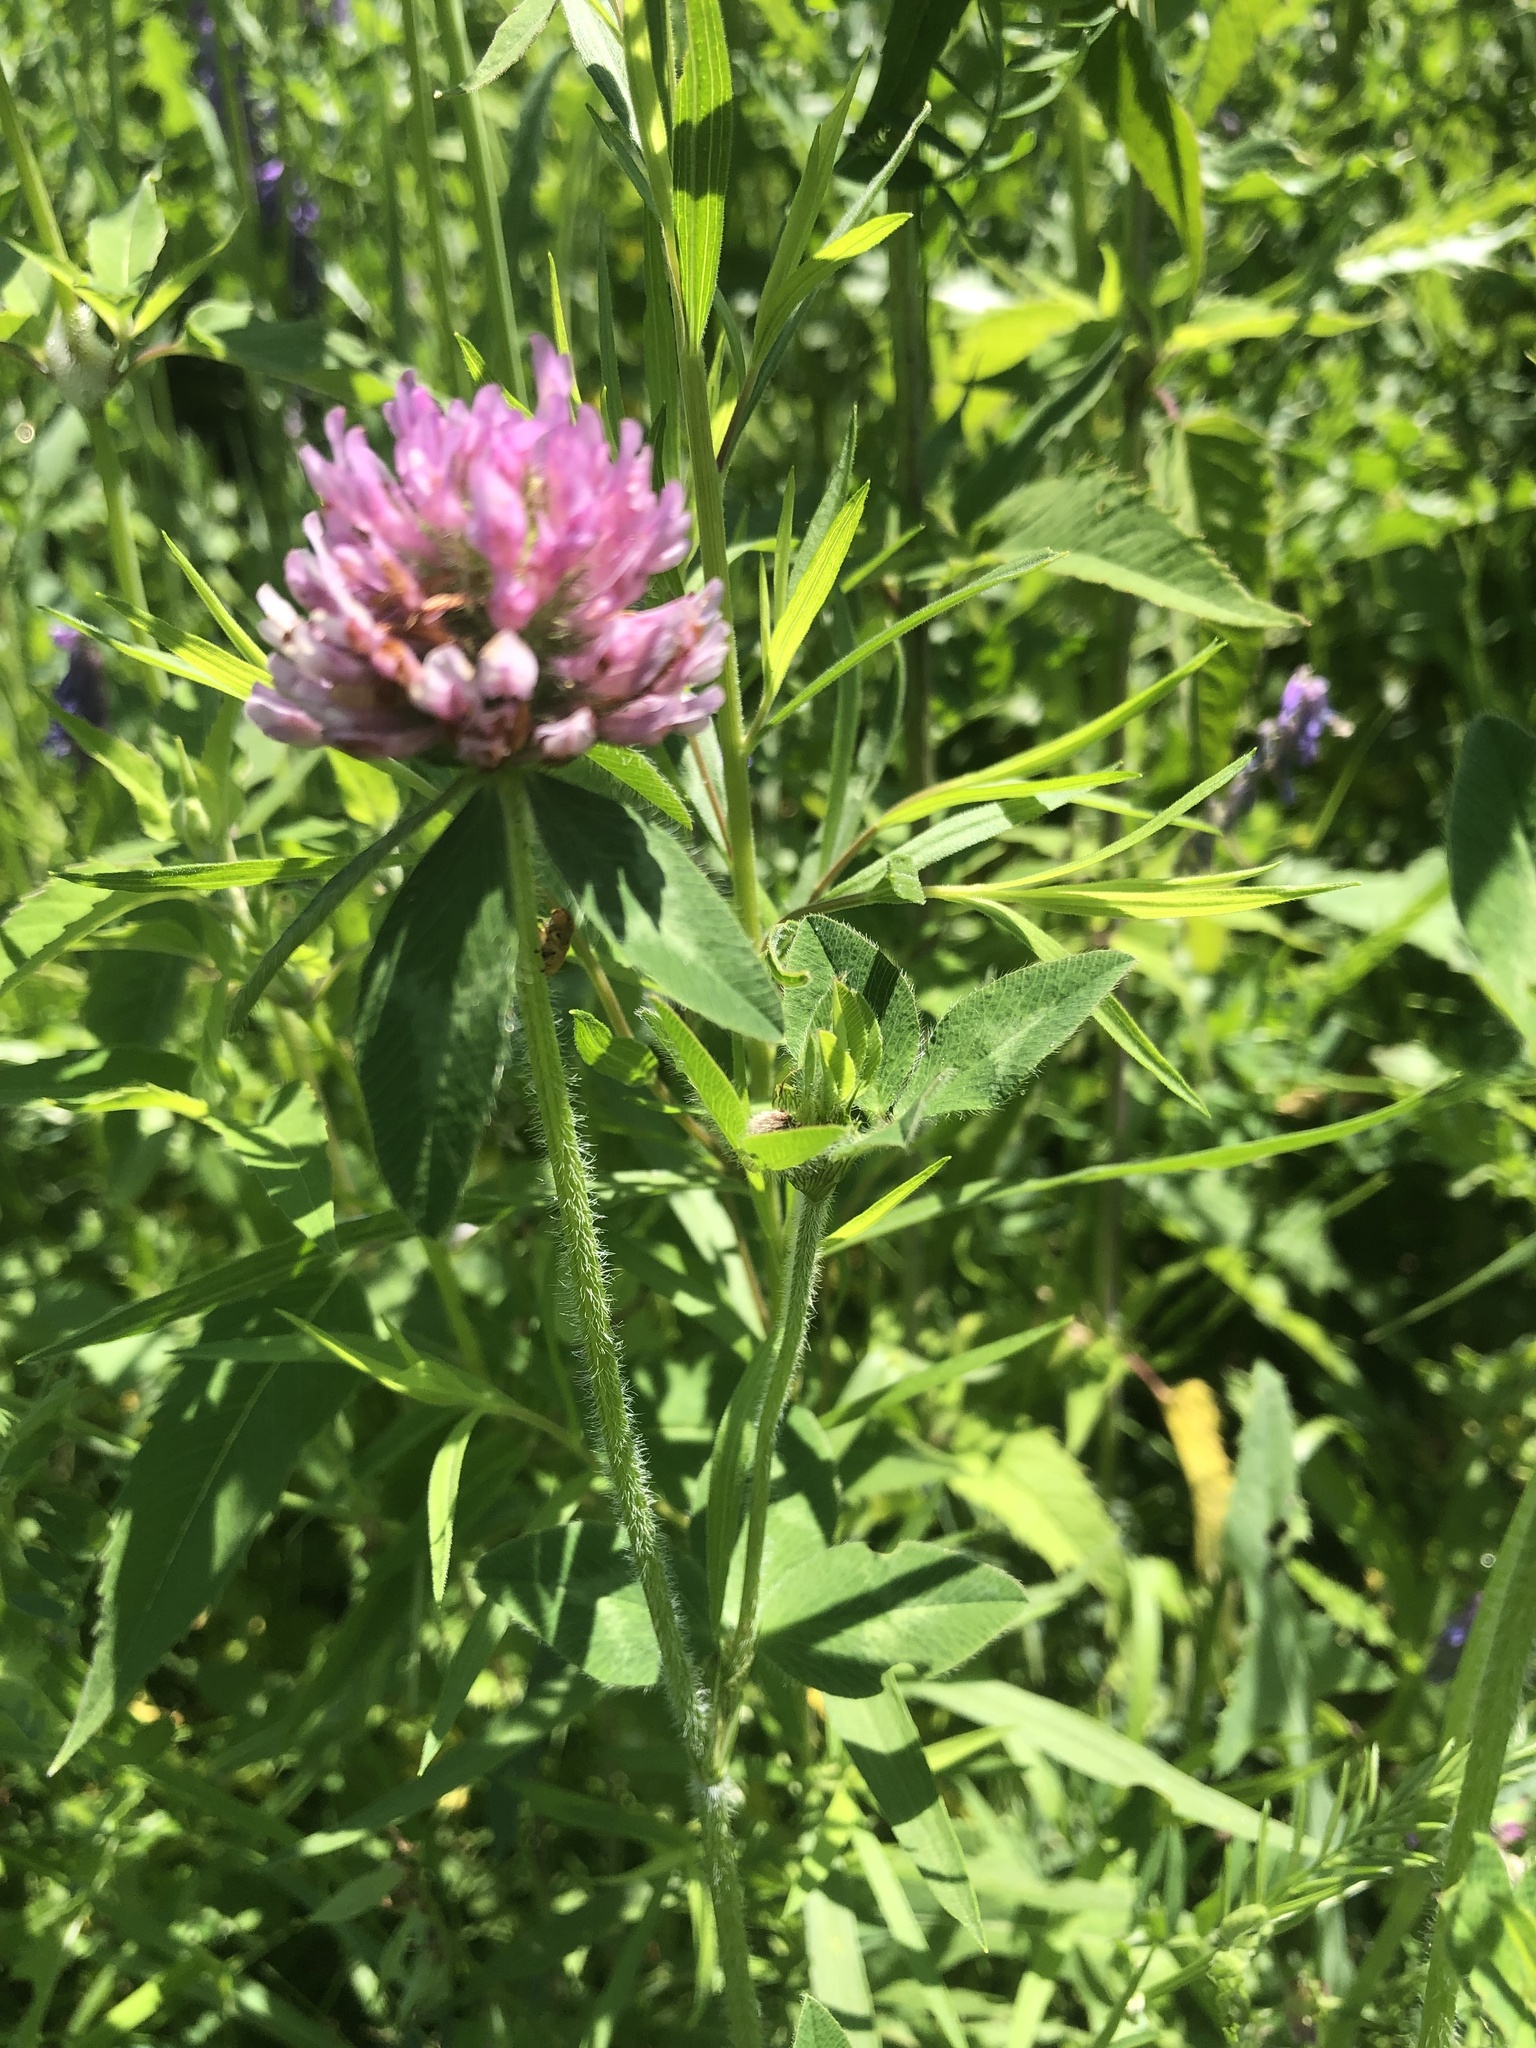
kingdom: Plantae
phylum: Tracheophyta
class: Magnoliopsida
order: Fabales
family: Fabaceae
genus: Trifolium
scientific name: Trifolium pratense
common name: Red clover
